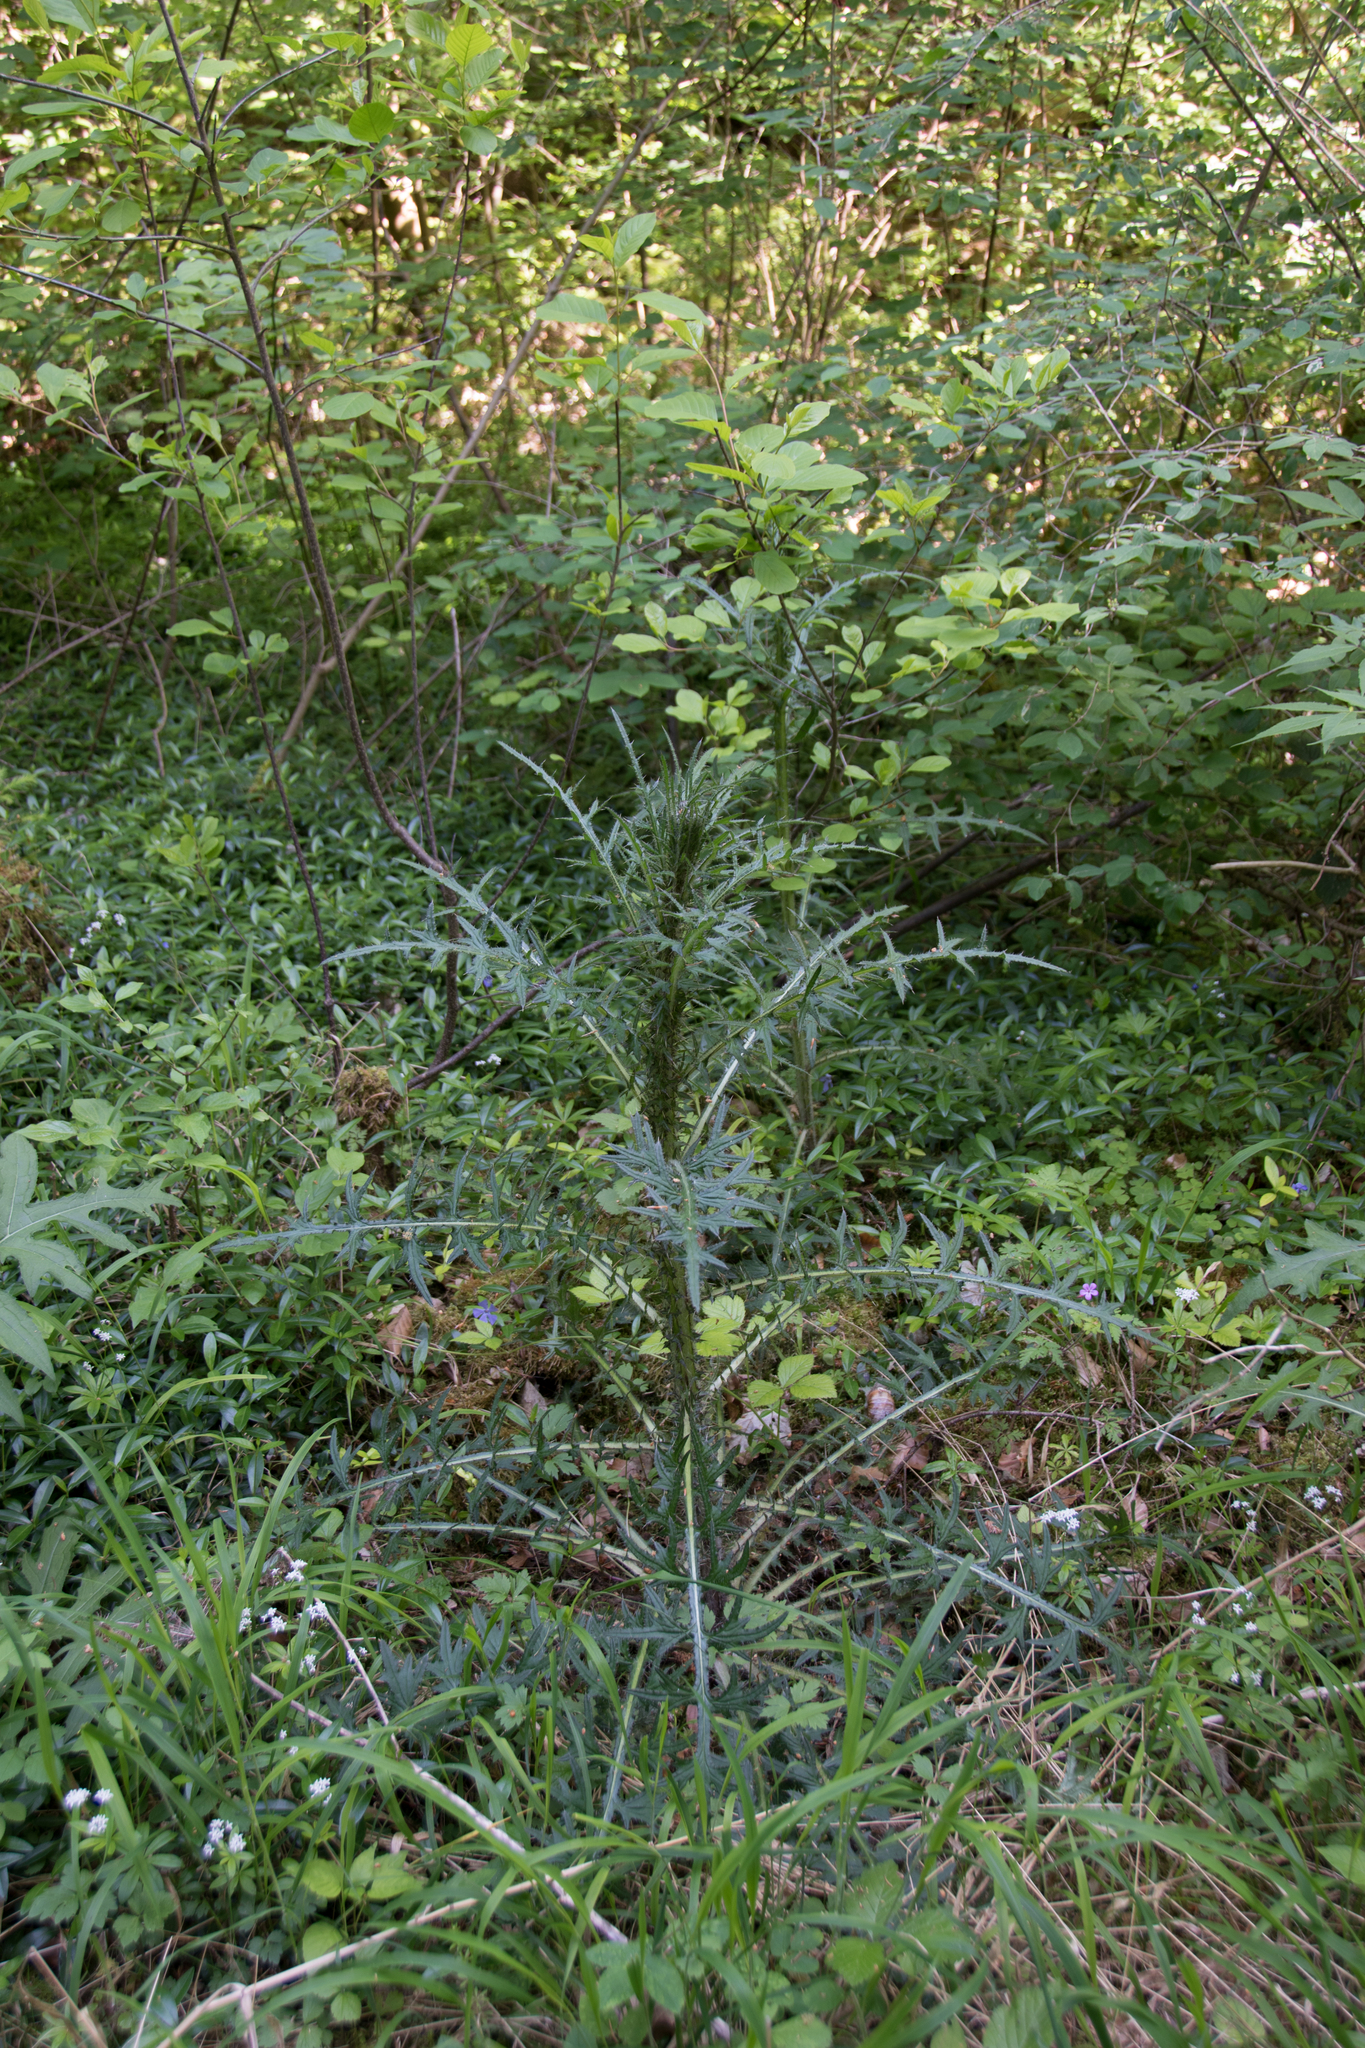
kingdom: Plantae
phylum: Tracheophyta
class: Magnoliopsida
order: Asterales
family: Asteraceae
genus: Cirsium
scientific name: Cirsium palustre
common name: Marsh thistle
